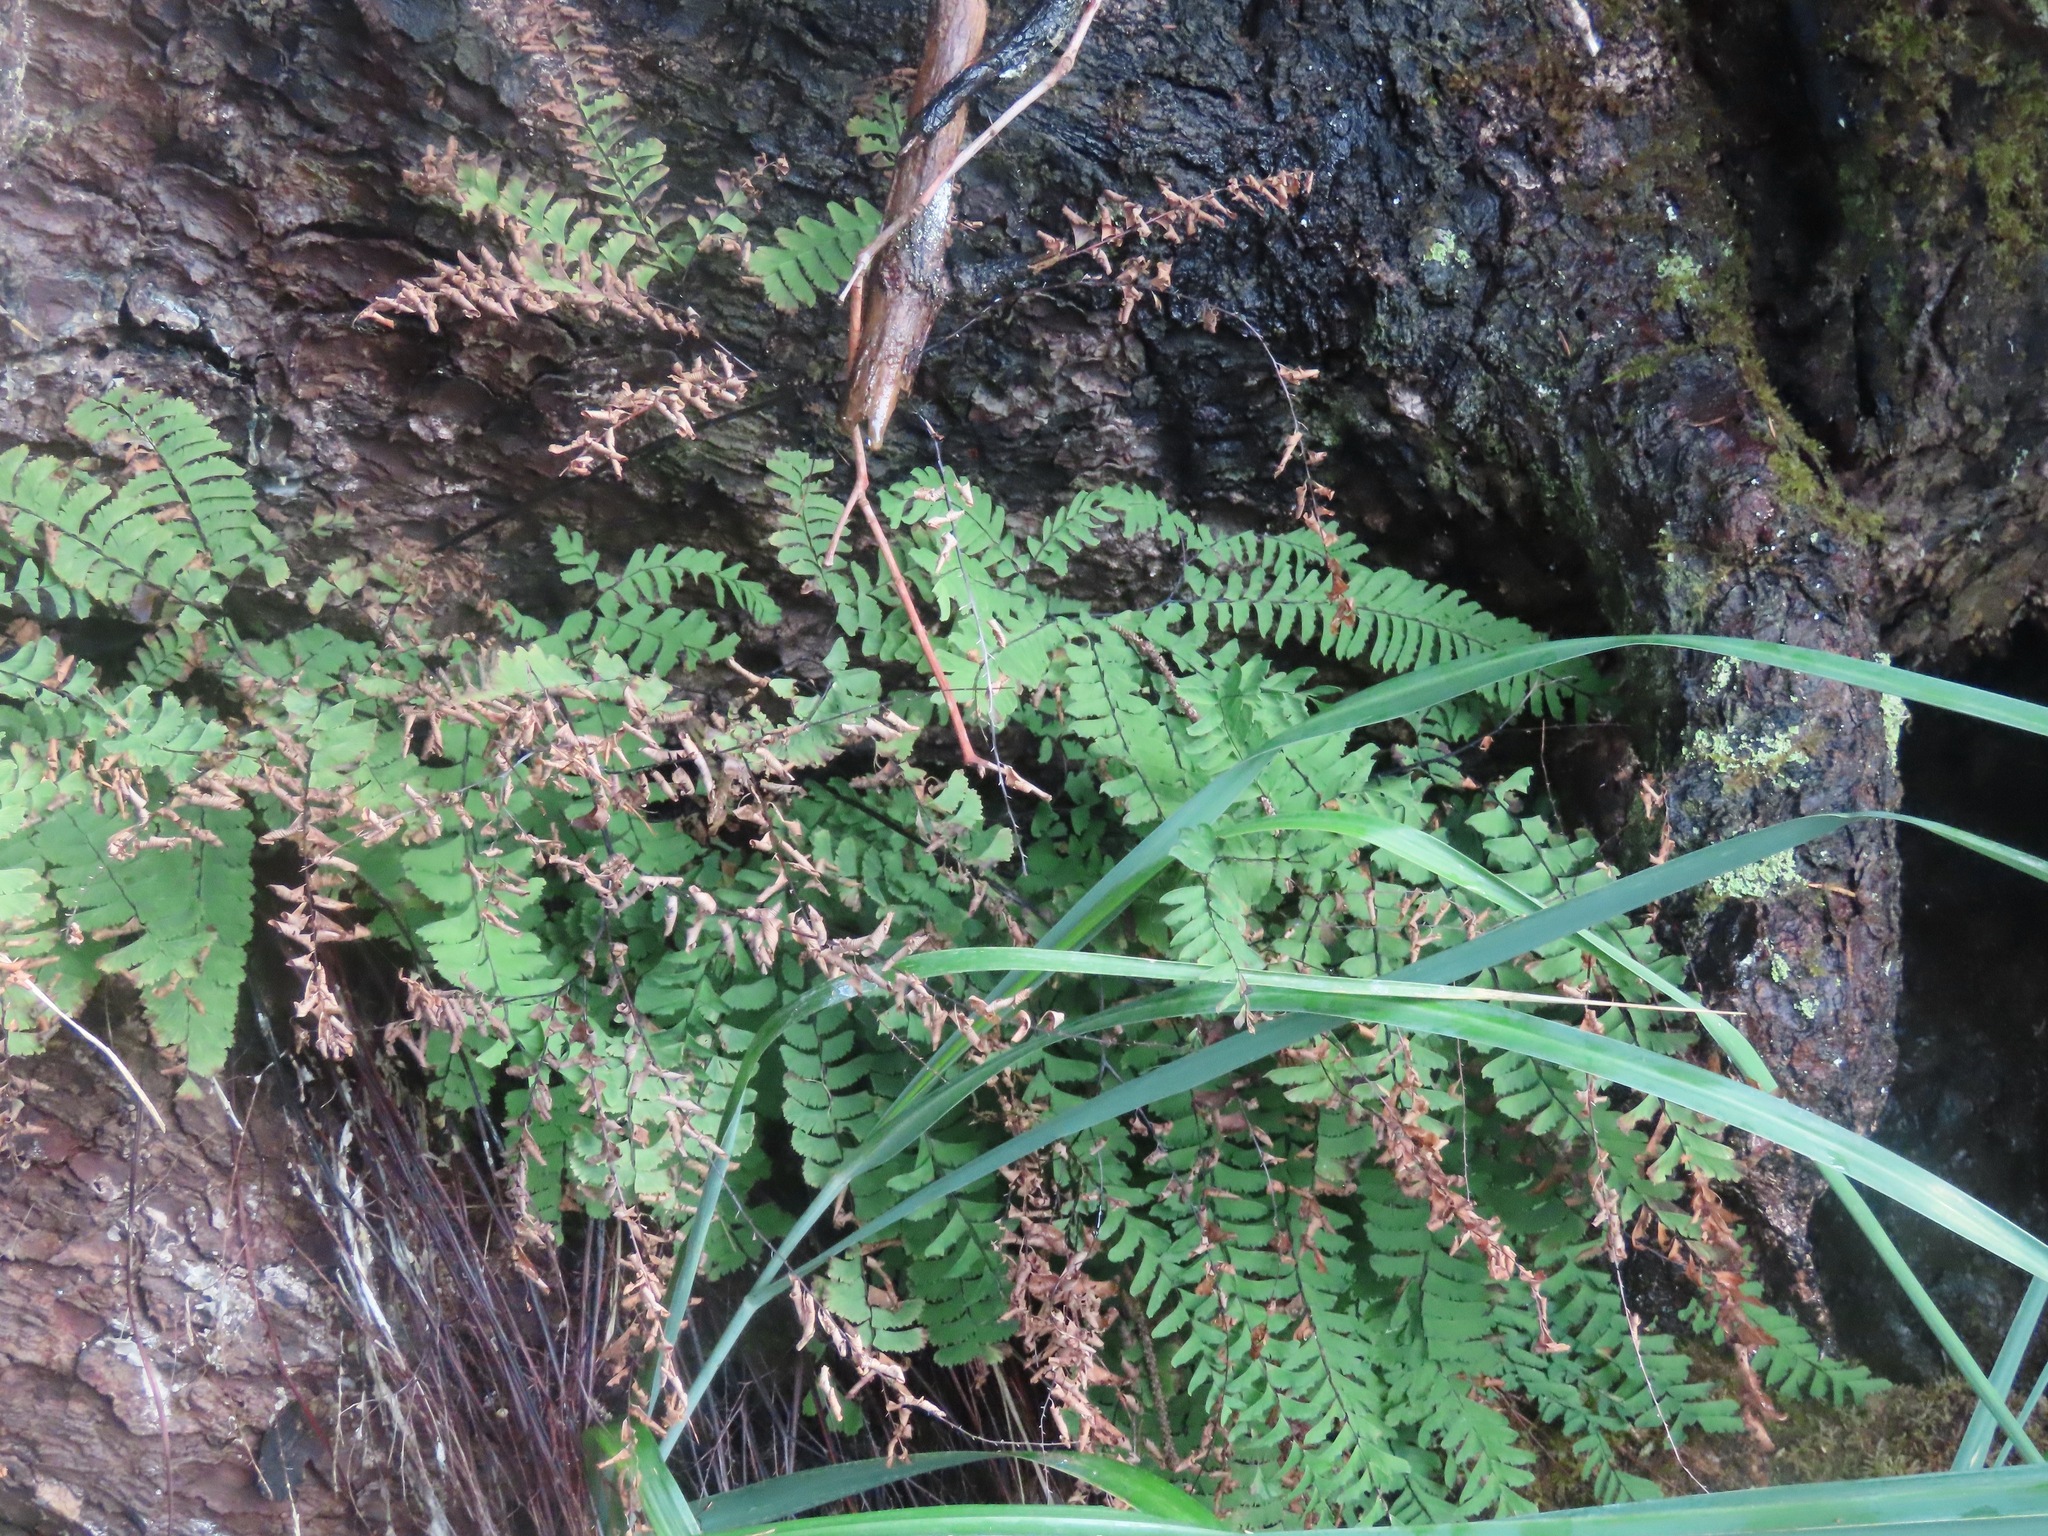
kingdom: Plantae
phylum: Tracheophyta
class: Polypodiopsida
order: Polypodiales
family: Pteridaceae
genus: Adiantum
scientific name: Adiantum aleuticum
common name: Aleutian maidenhair fern
